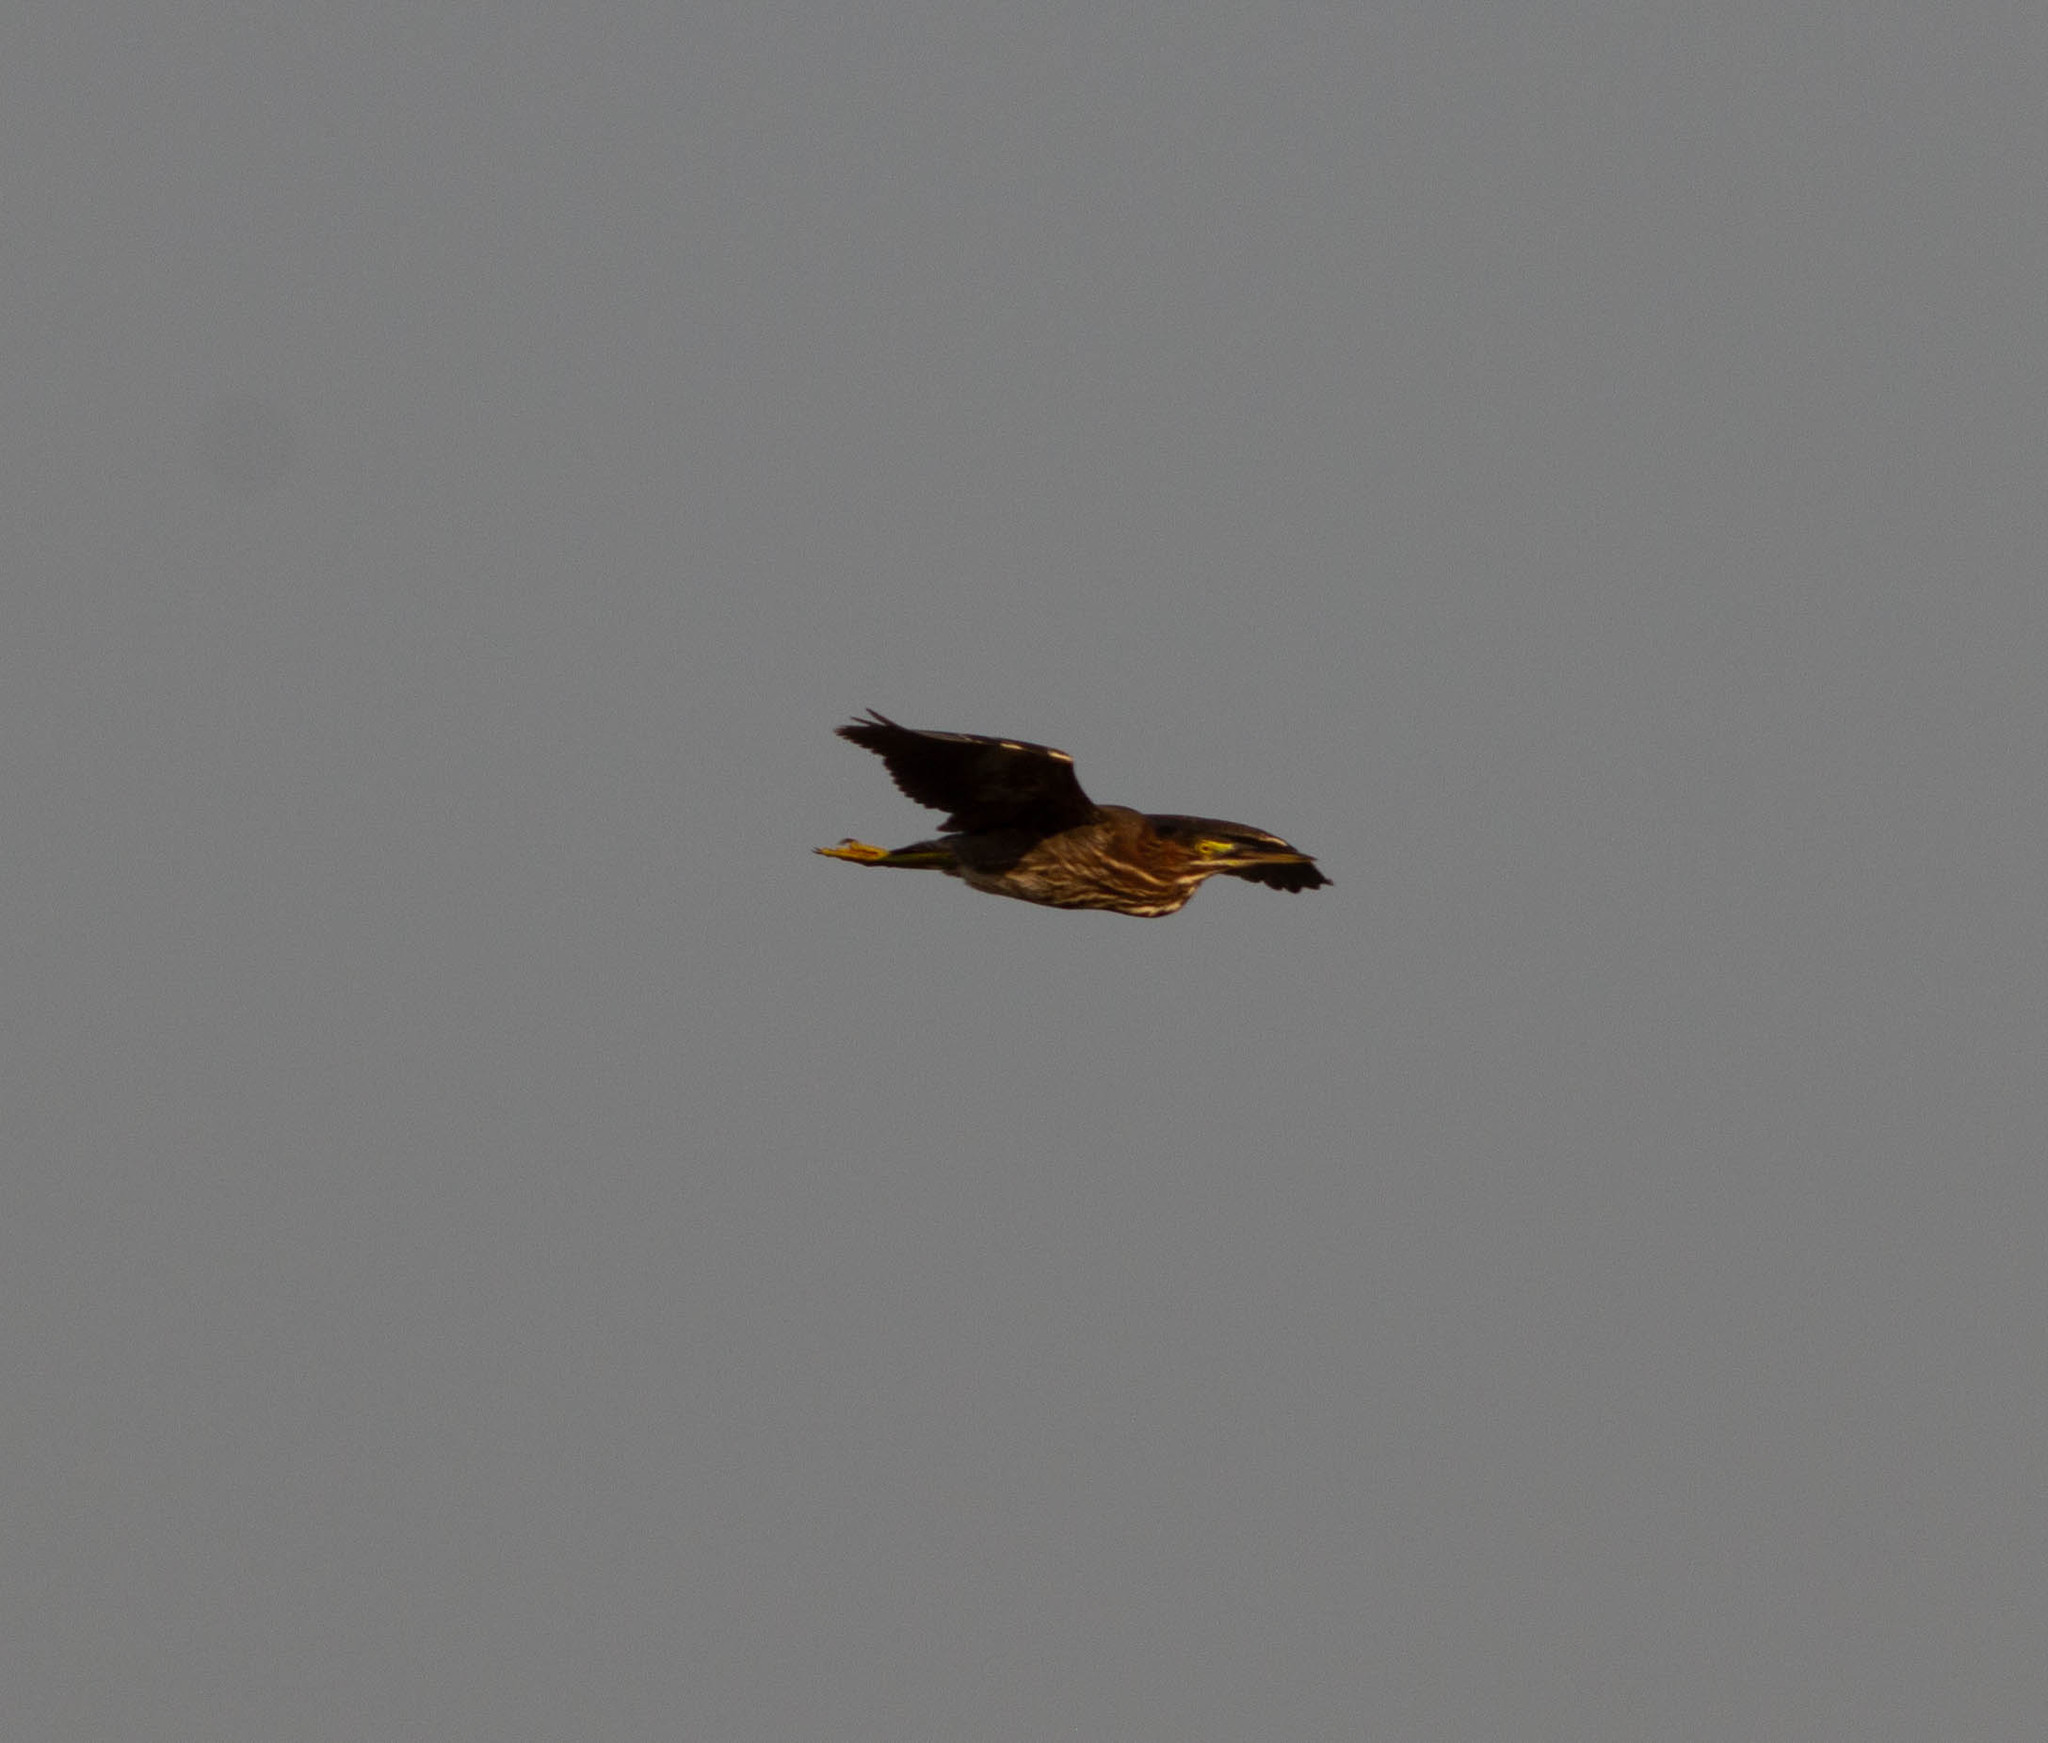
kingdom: Animalia
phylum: Chordata
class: Aves
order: Pelecaniformes
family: Ardeidae
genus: Butorides
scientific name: Butorides virescens
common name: Green heron
